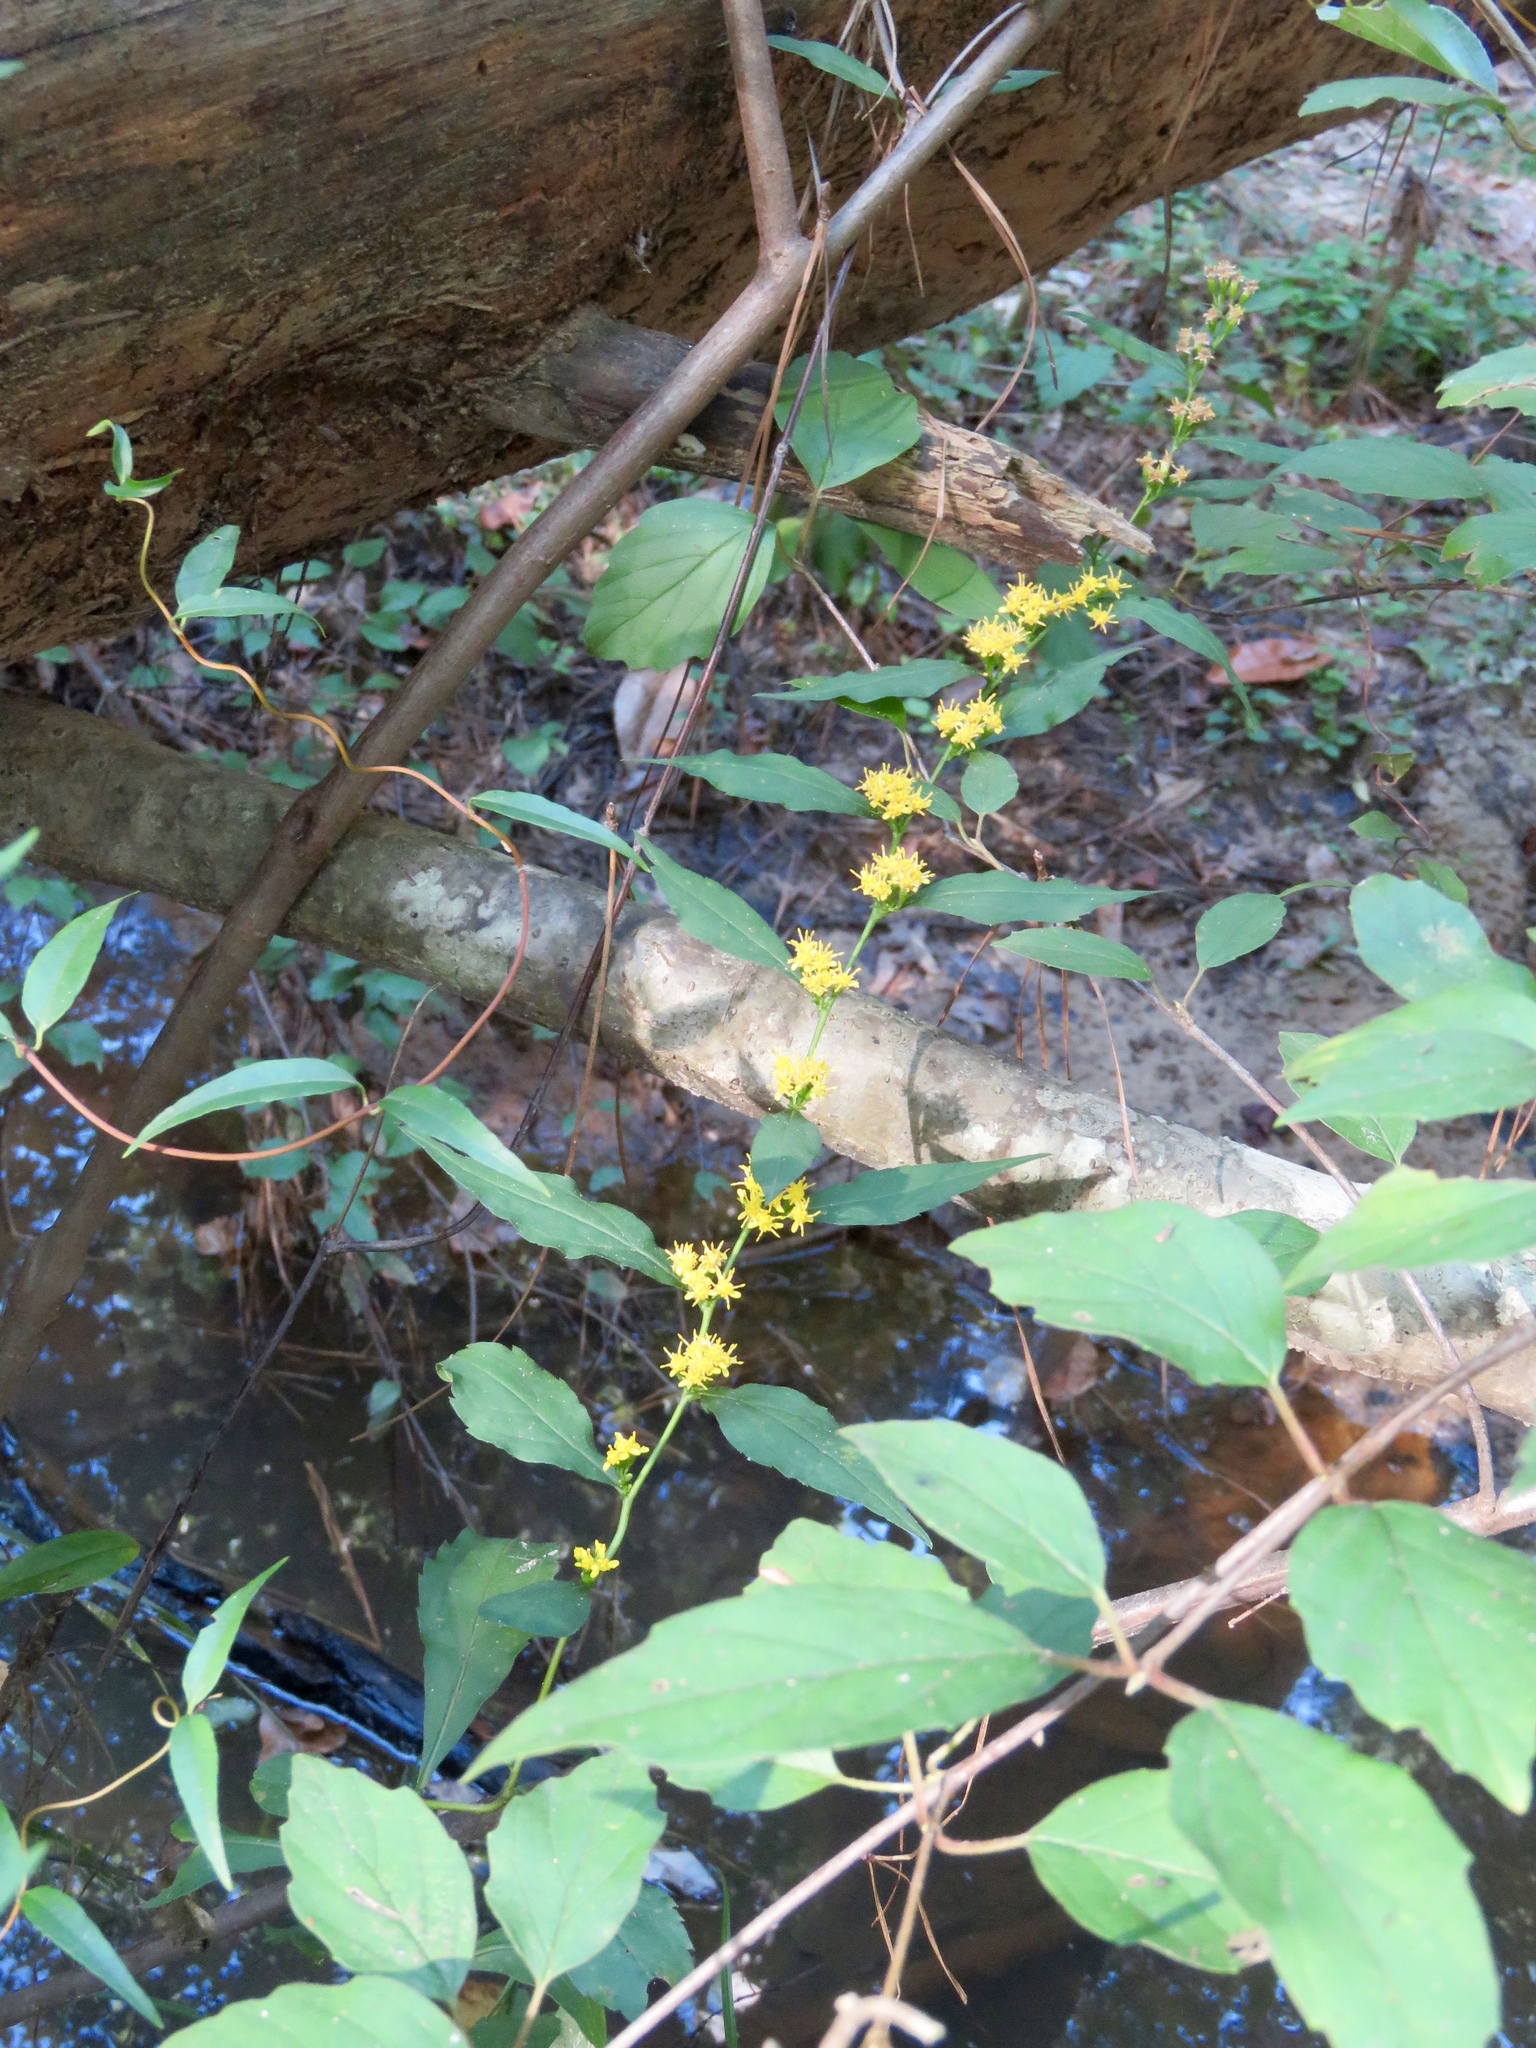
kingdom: Plantae
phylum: Tracheophyta
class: Magnoliopsida
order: Asterales
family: Asteraceae
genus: Solidago
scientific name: Solidago caesia
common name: Woodland goldenrod
